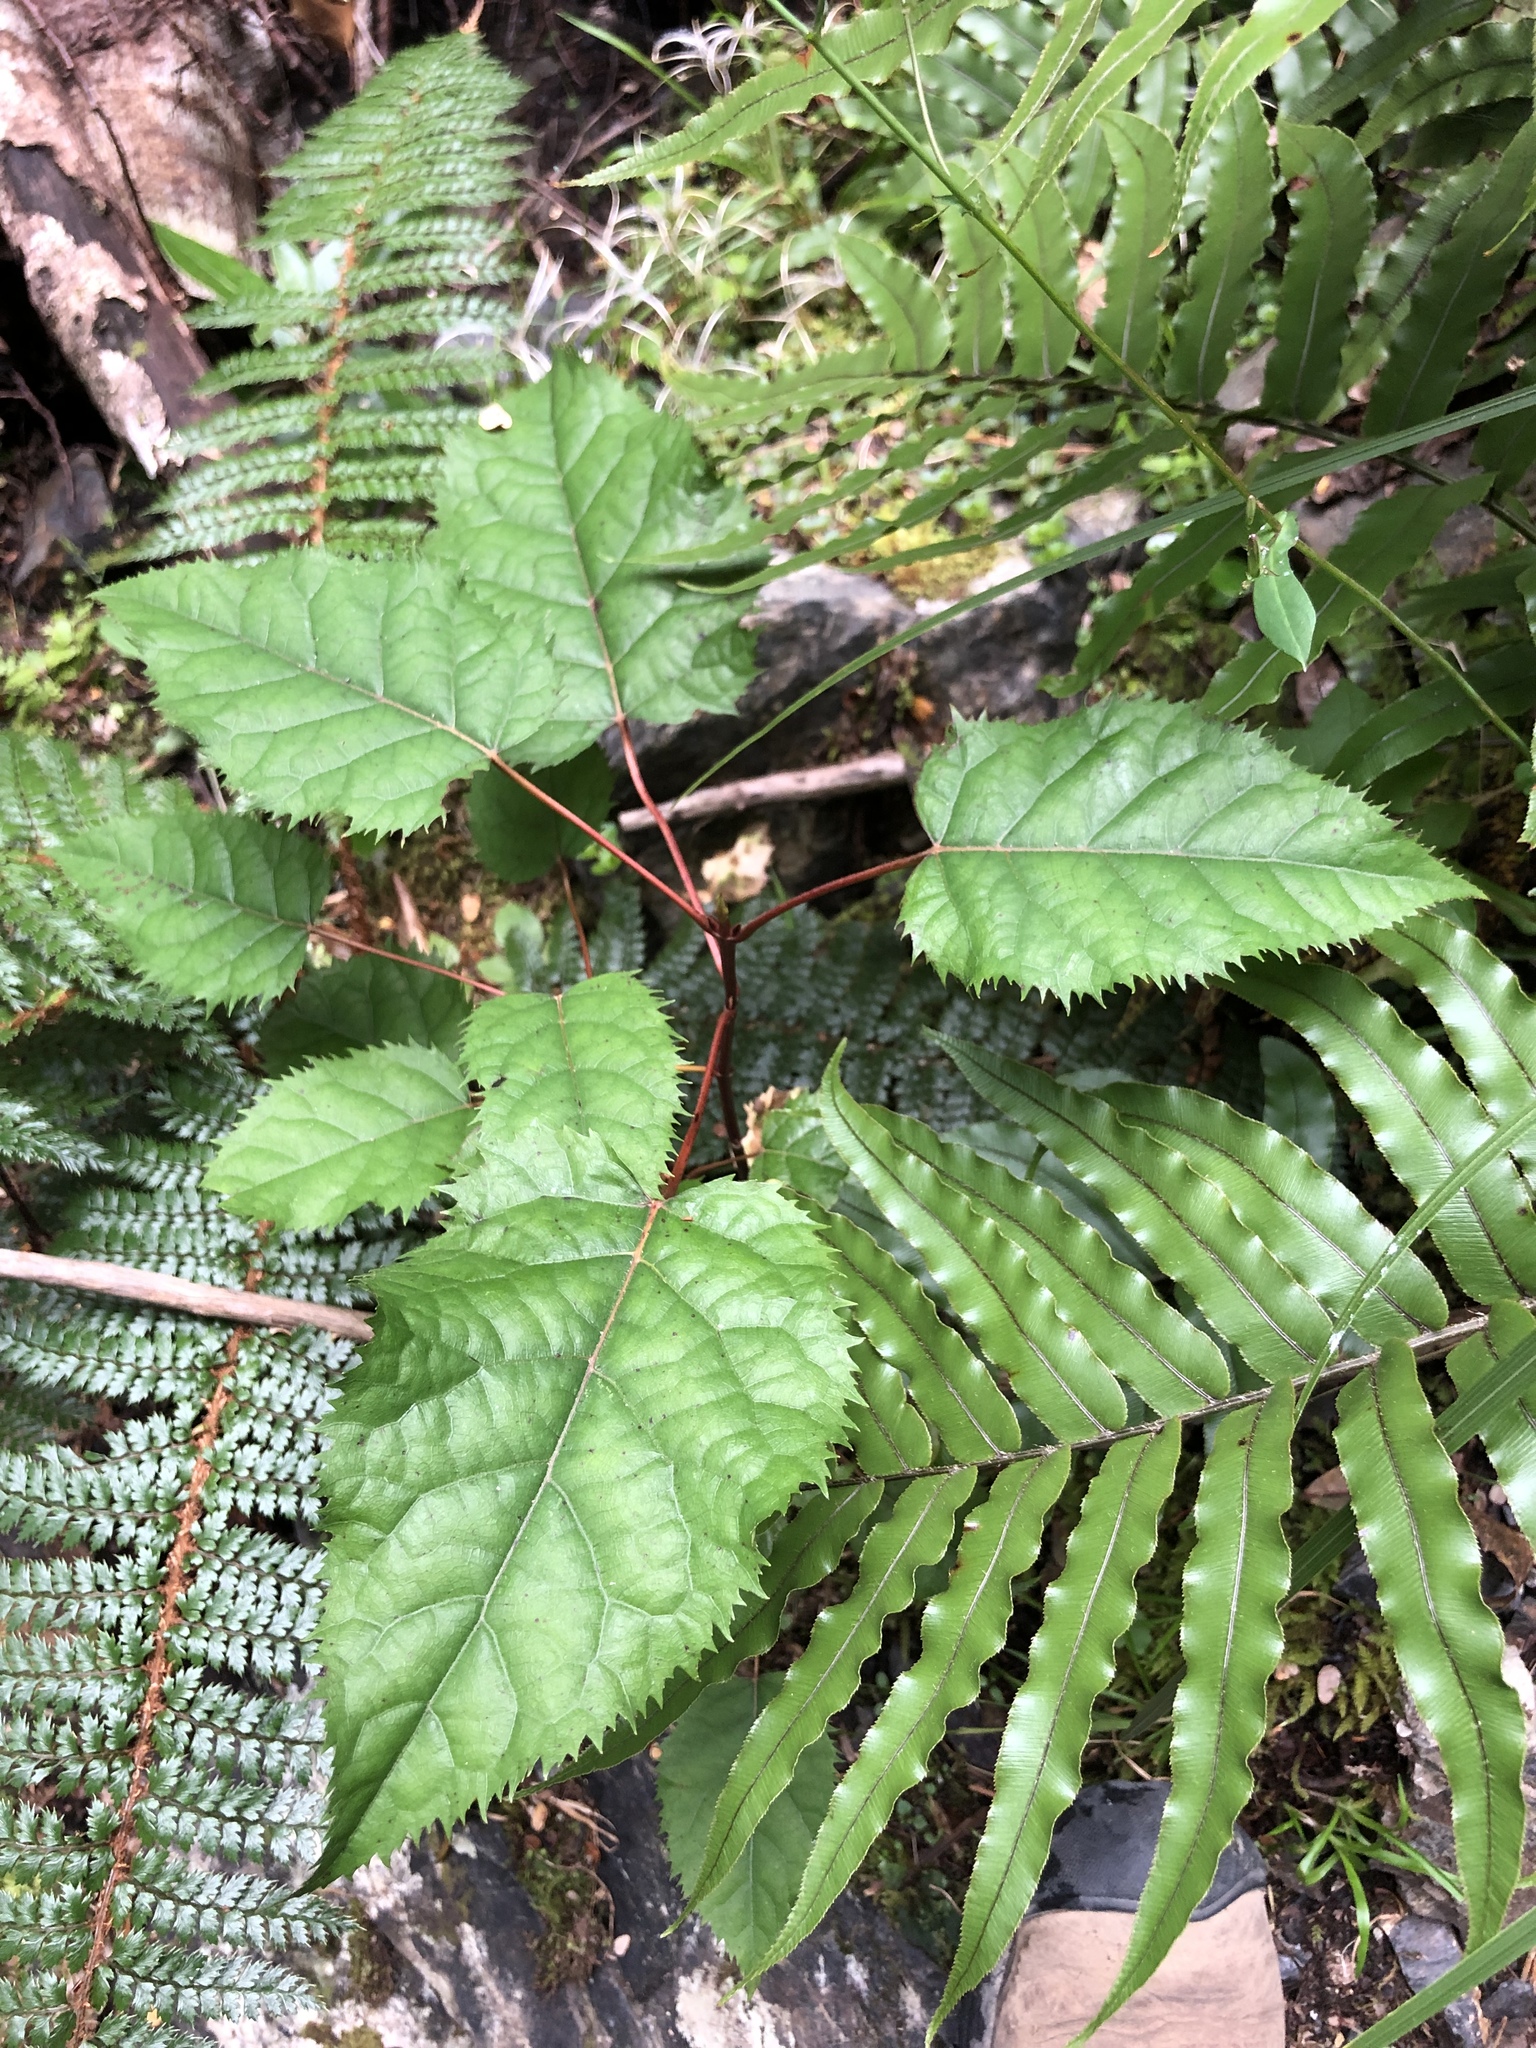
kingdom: Plantae
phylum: Tracheophyta
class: Magnoliopsida
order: Oxalidales
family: Elaeocarpaceae
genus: Aristotelia
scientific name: Aristotelia serrata
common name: New zealand wineberry
